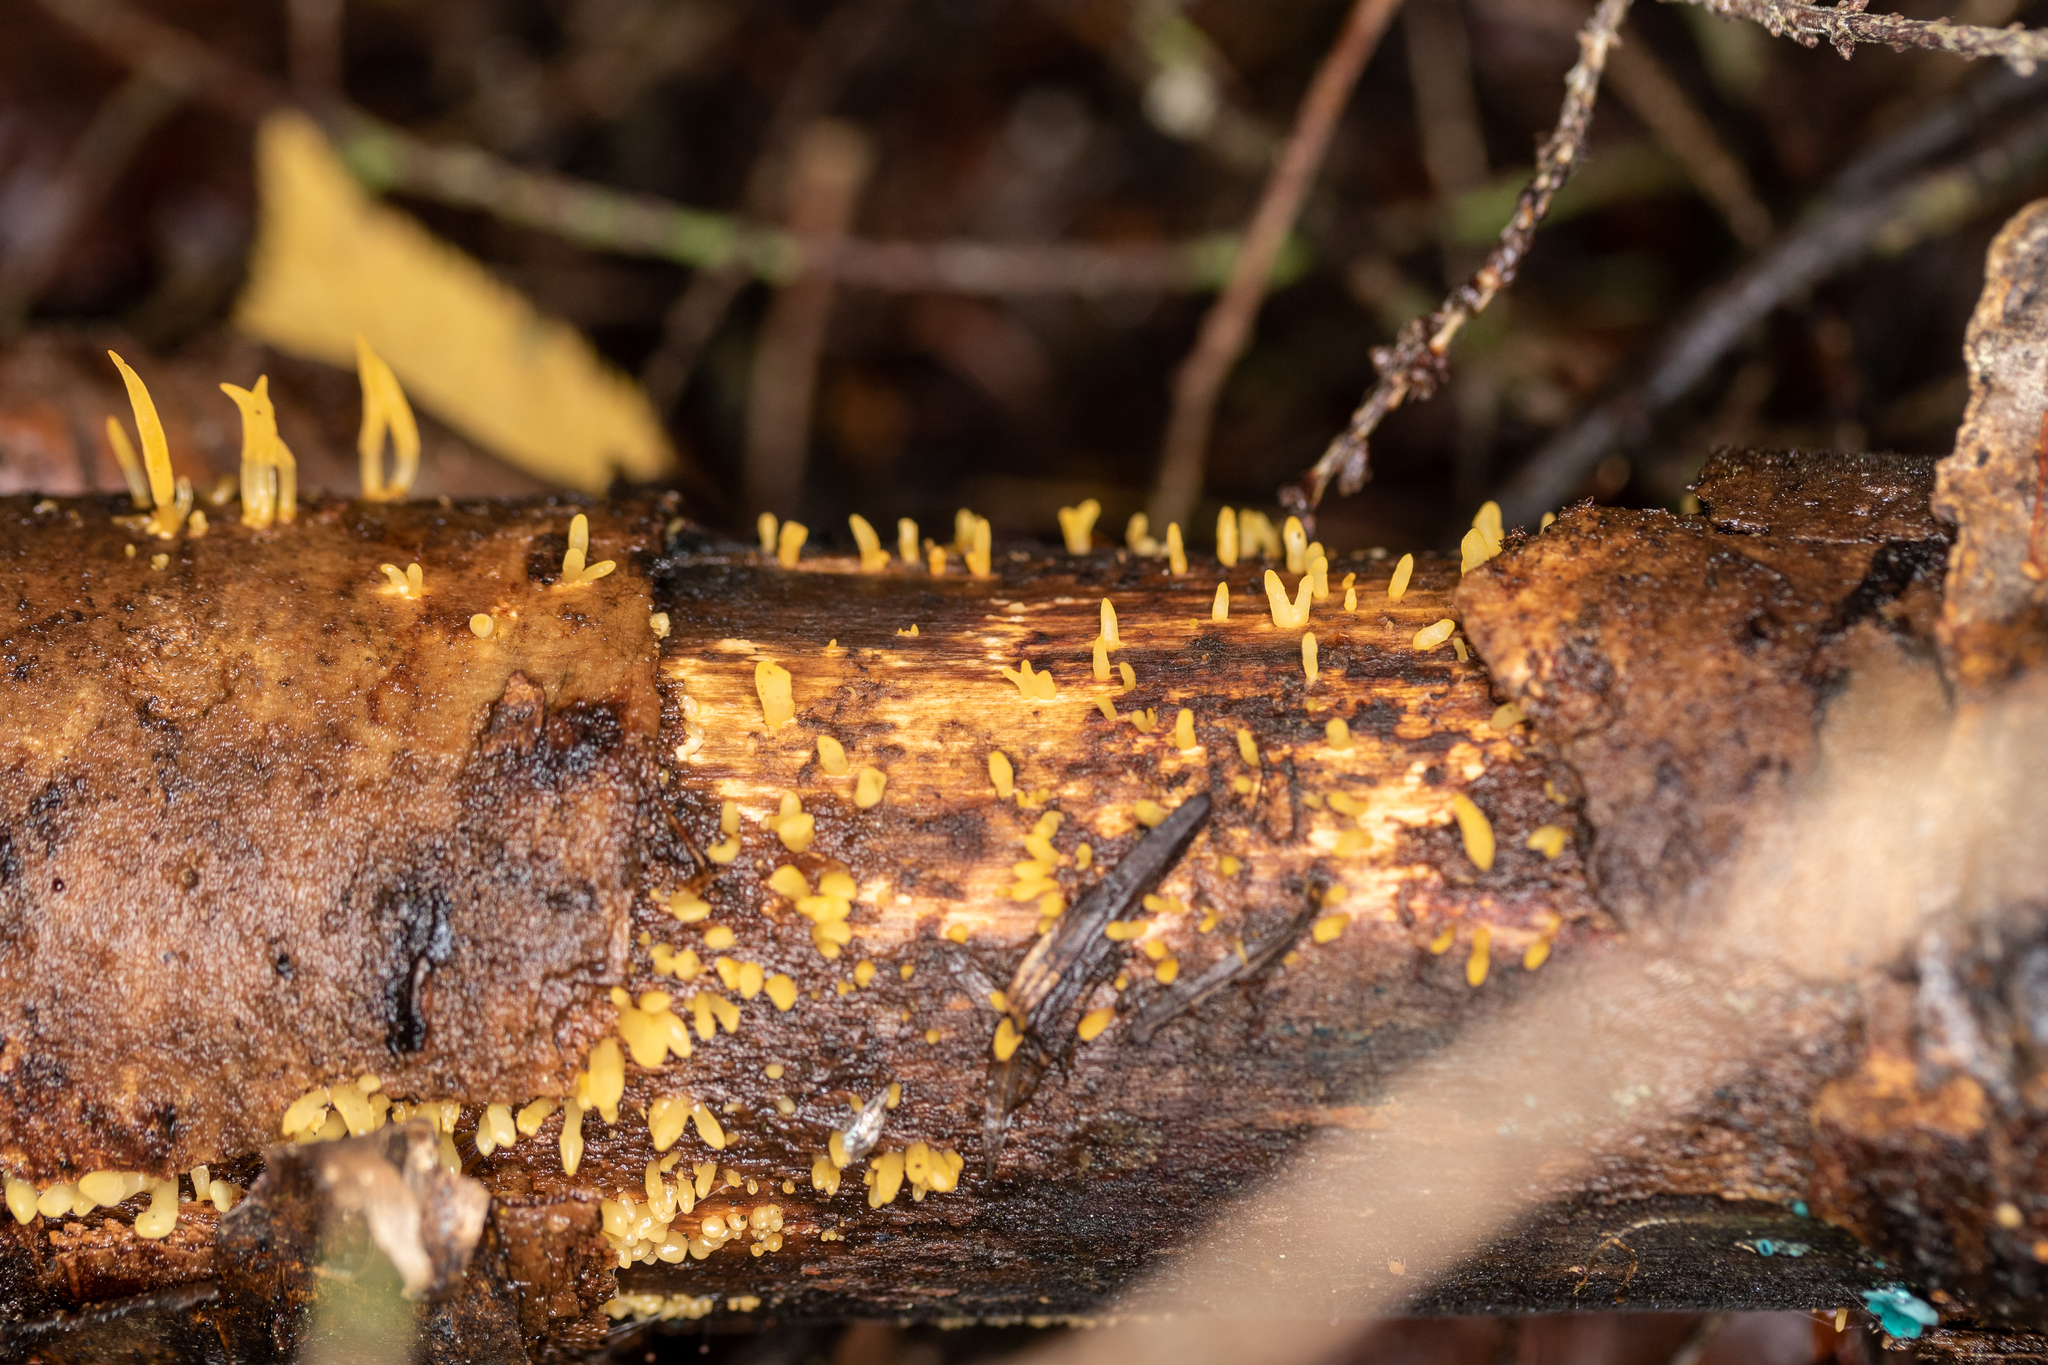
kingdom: Fungi
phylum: Basidiomycota
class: Dacrymycetes
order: Dacrymycetales
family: Dacrymycetaceae
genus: Calocera
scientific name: Calocera cornea
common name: Small stagshorn
